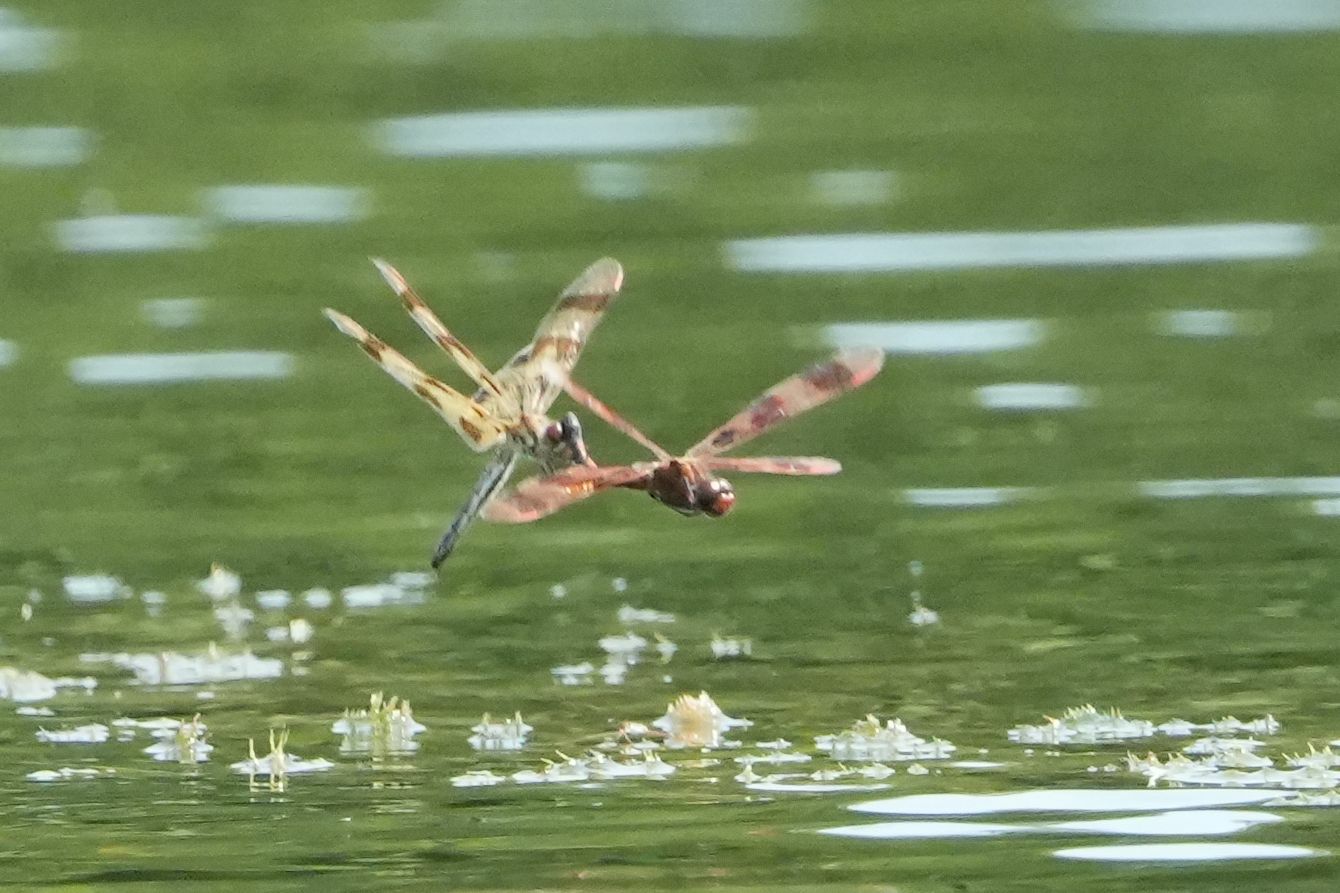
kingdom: Animalia
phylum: Arthropoda
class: Insecta
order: Odonata
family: Libellulidae
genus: Celithemis
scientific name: Celithemis eponina
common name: Halloween pennant
